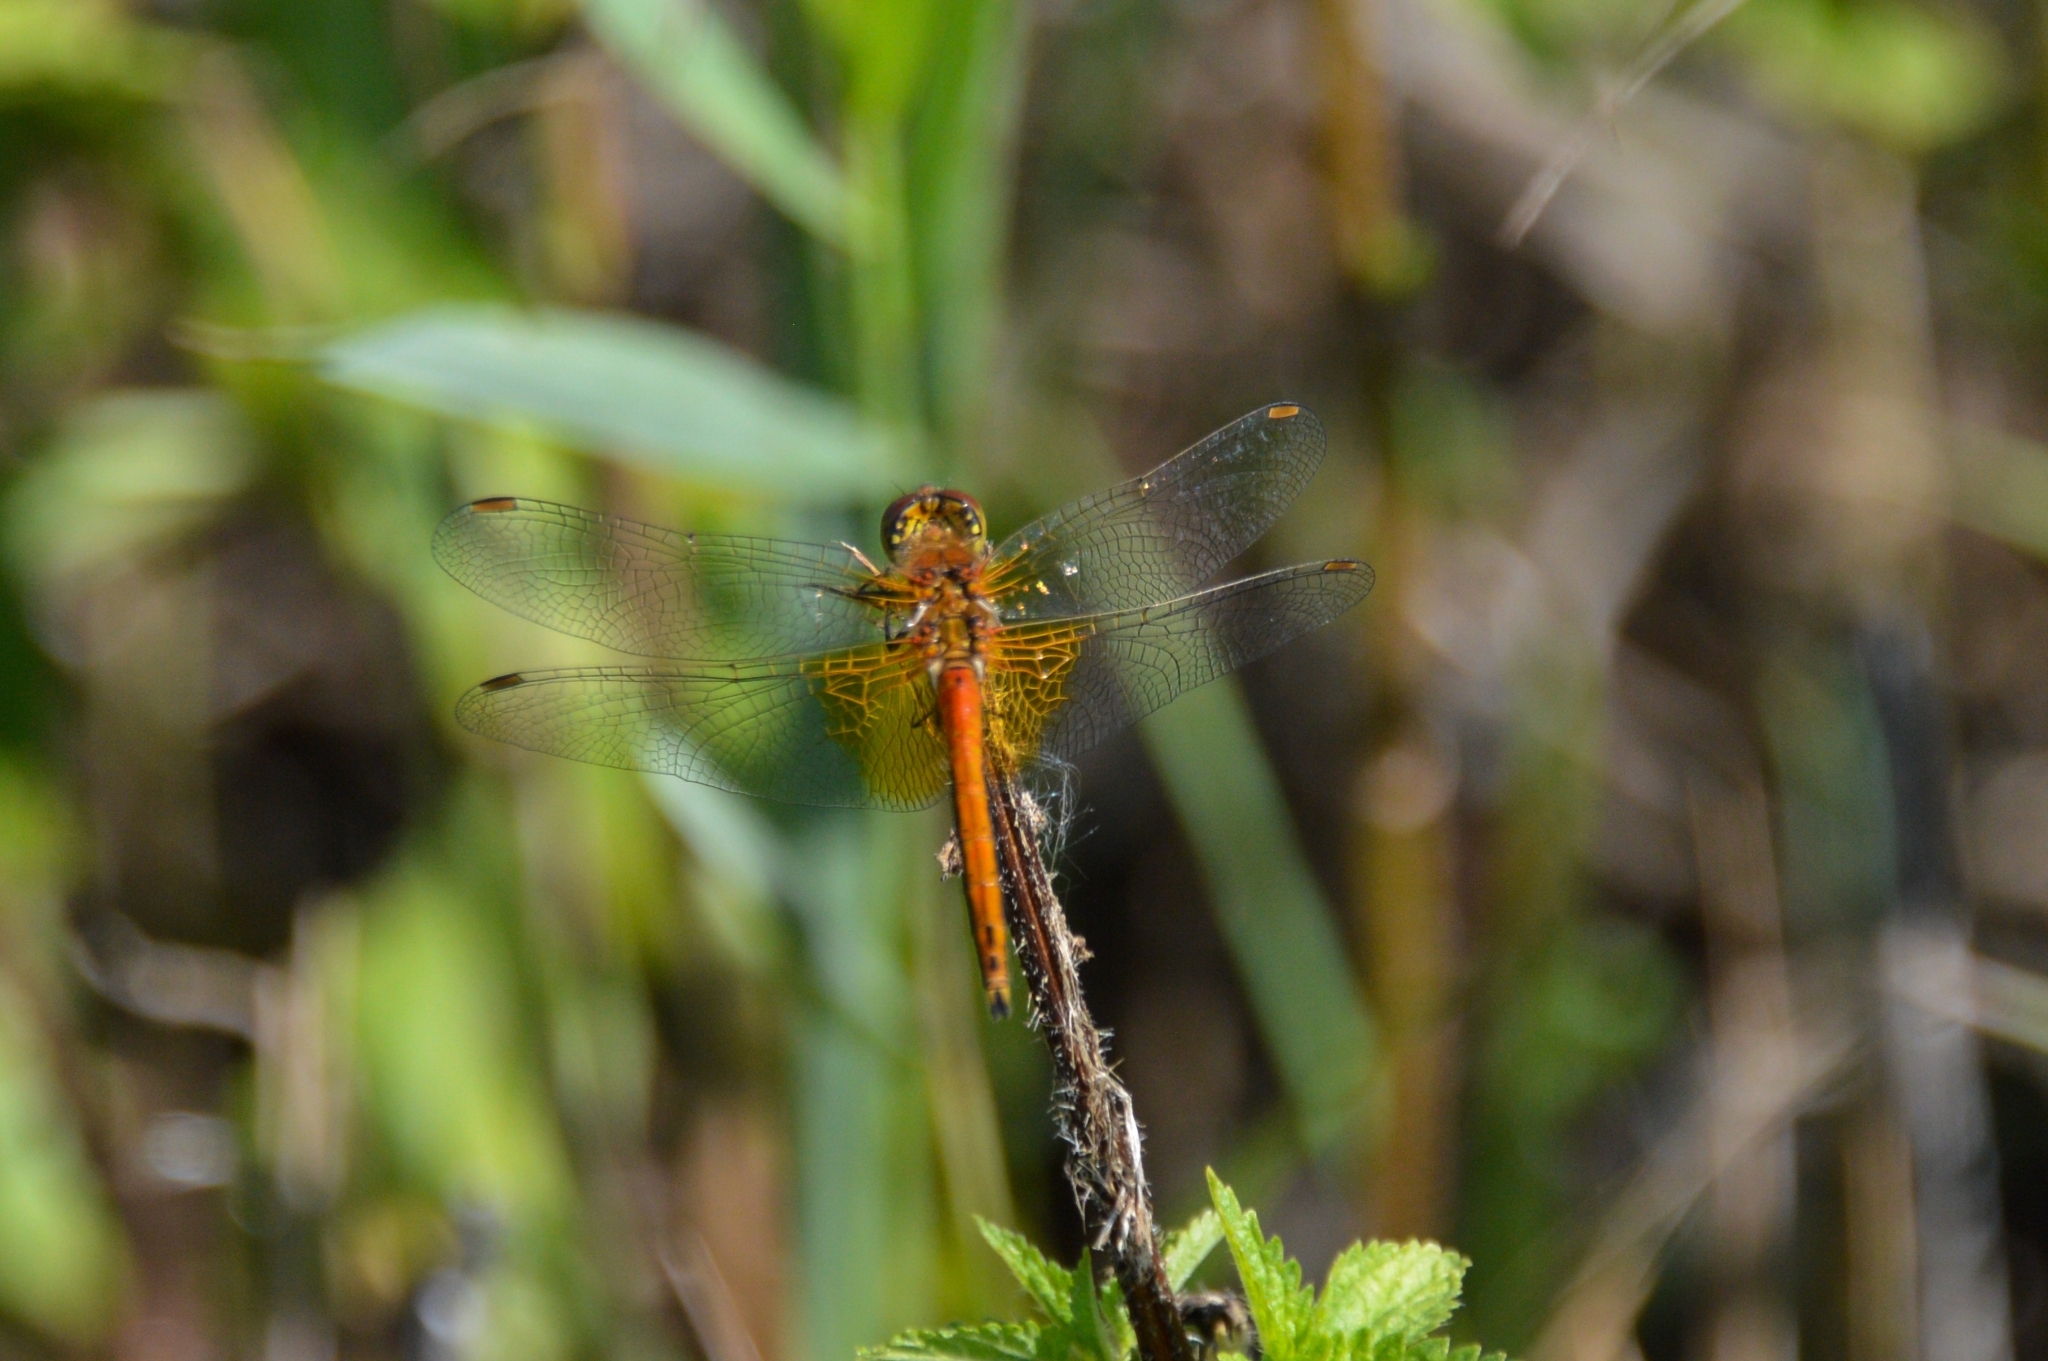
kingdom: Animalia
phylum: Arthropoda
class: Insecta
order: Odonata
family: Libellulidae
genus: Sympetrum
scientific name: Sympetrum flaveolum
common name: Yellow-winged darter
